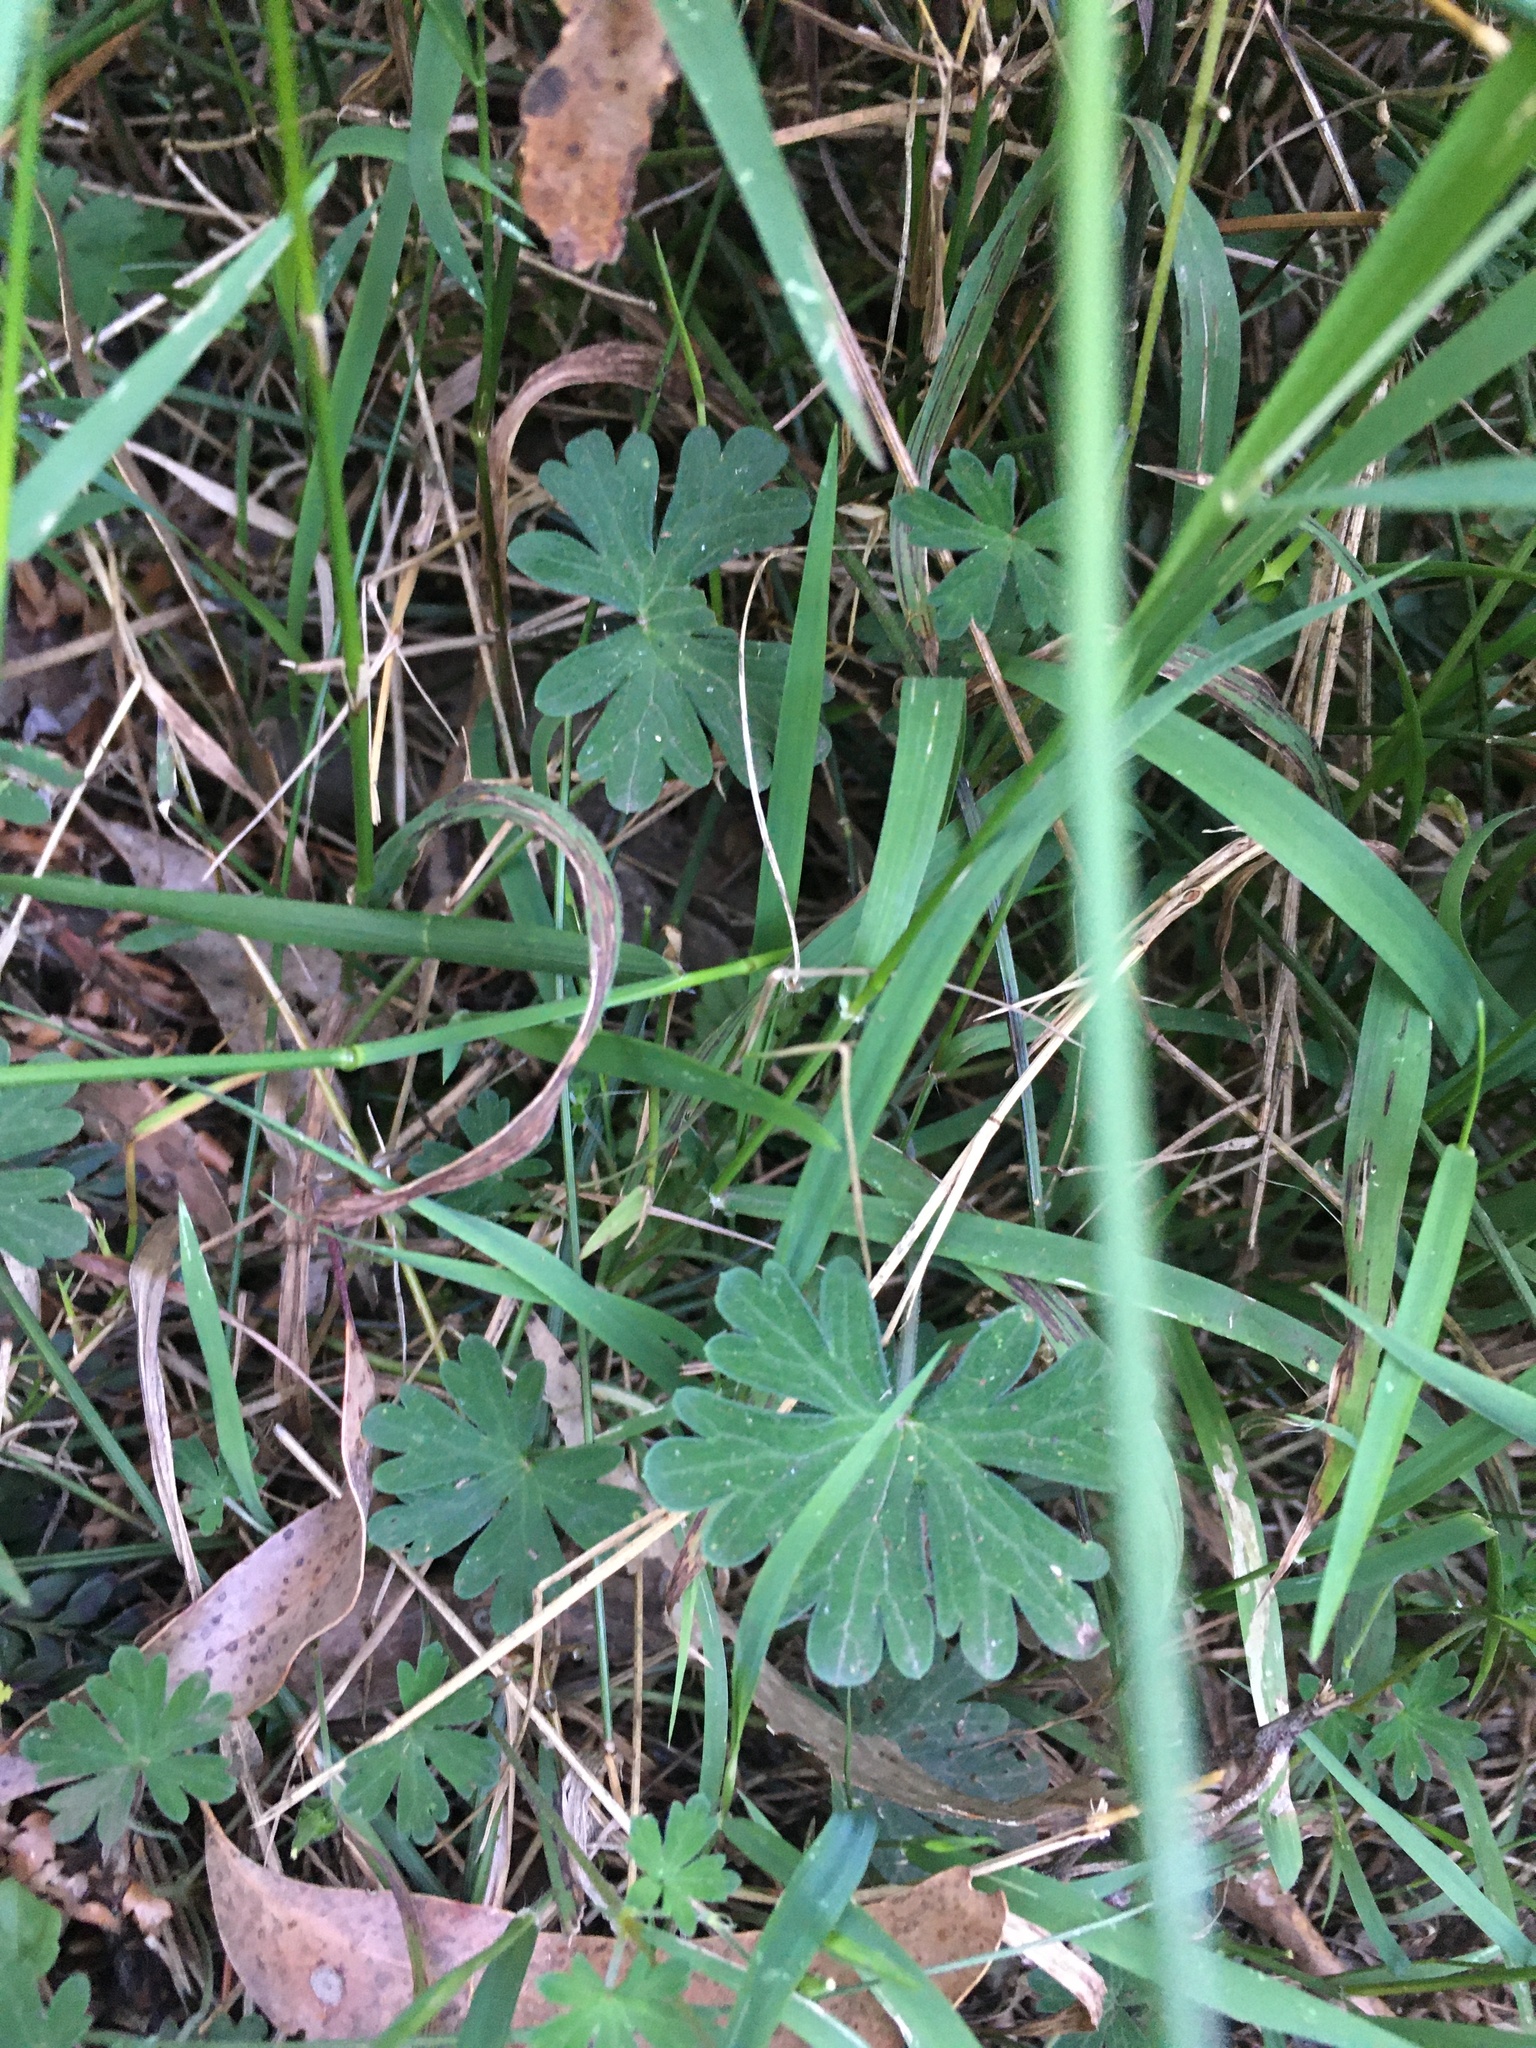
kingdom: Plantae
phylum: Tracheophyta
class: Magnoliopsida
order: Geraniales
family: Geraniaceae
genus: Geranium
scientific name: Geranium potentilloides
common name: Cinquefoil geranium
